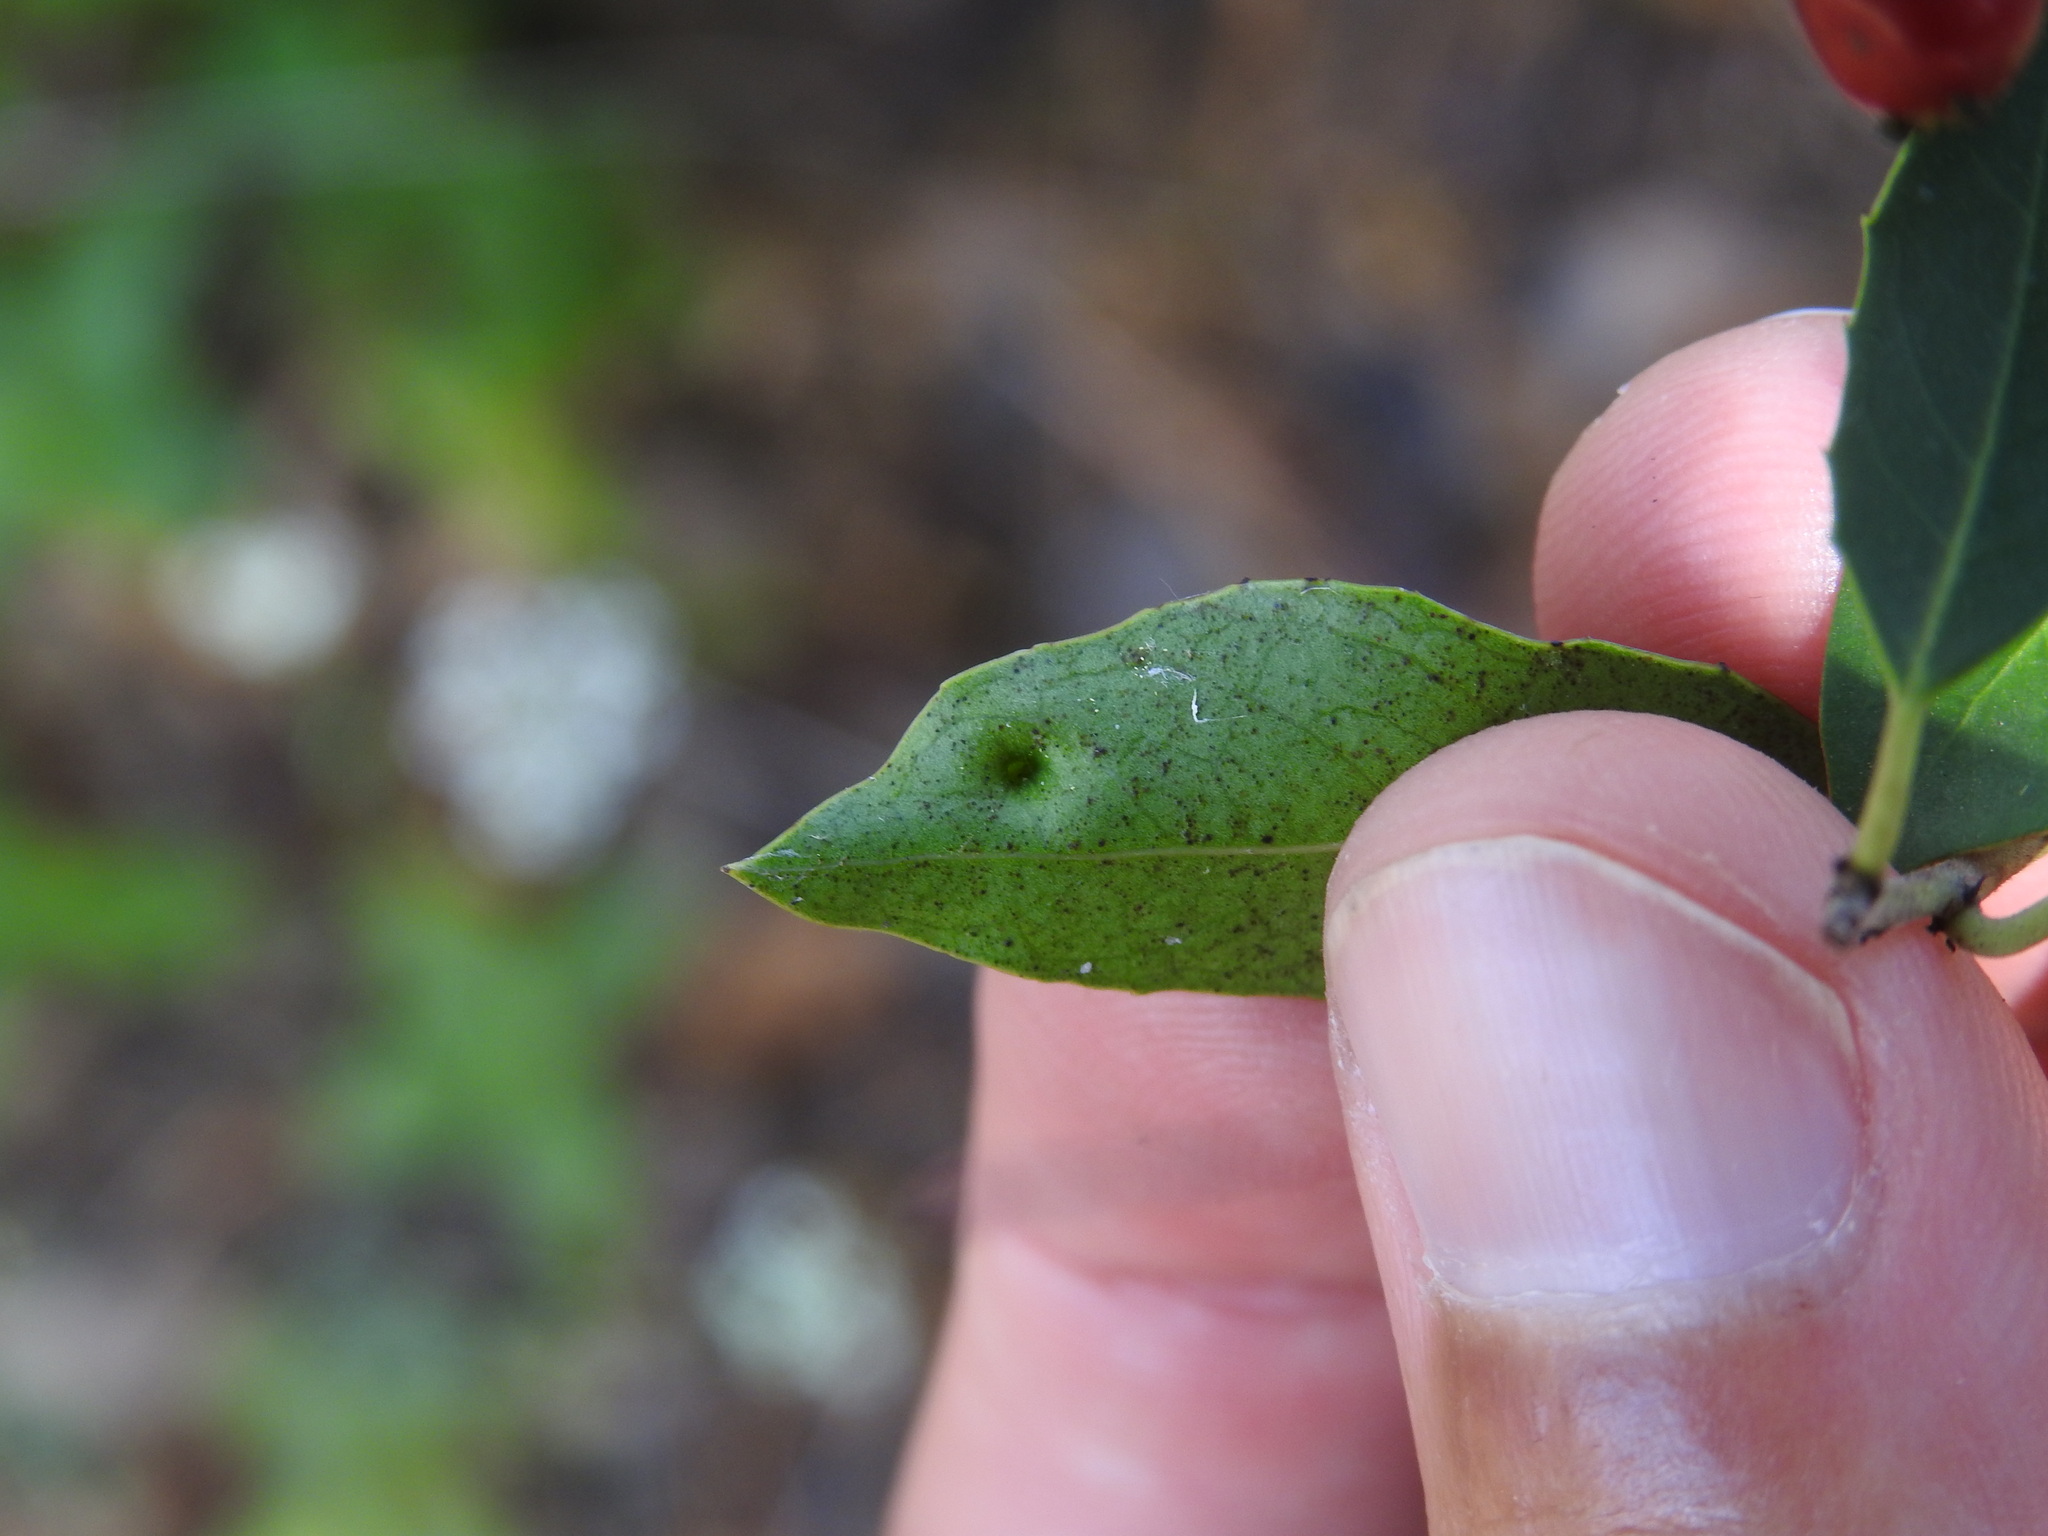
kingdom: Animalia
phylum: Arthropoda
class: Insecta
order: Hemiptera
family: Triozidae
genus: Trioza
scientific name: Trioza kiefferi
